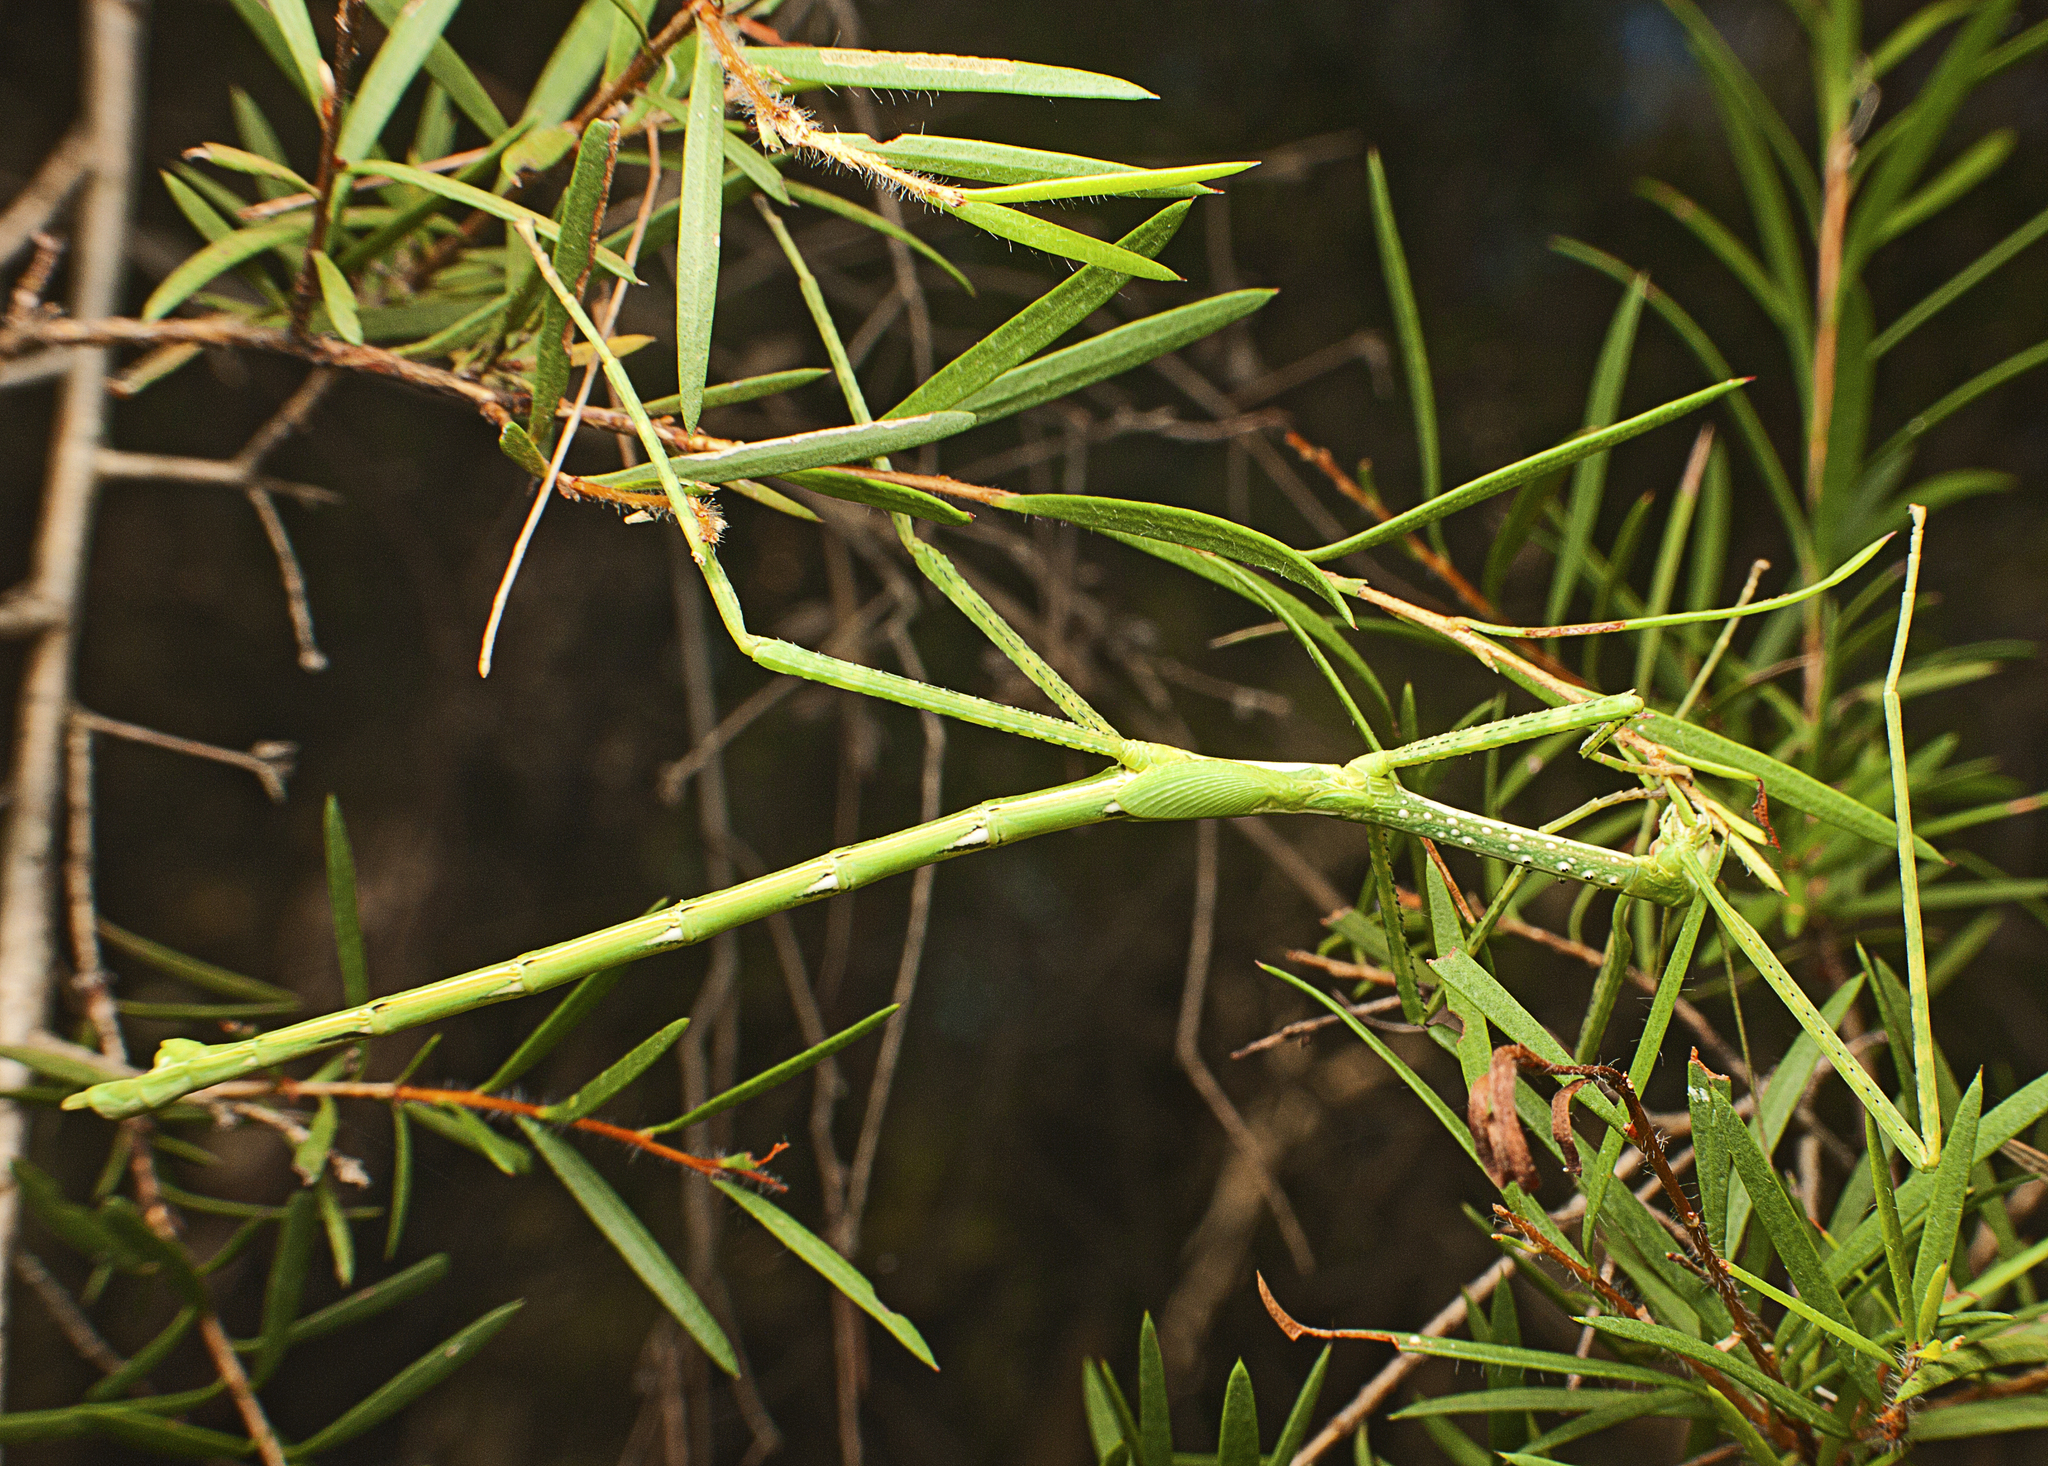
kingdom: Animalia
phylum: Arthropoda
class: Insecta
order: Phasmida
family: Phasmatidae
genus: Anchiale
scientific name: Anchiale austrotessulata
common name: Tessellated stick-insect
